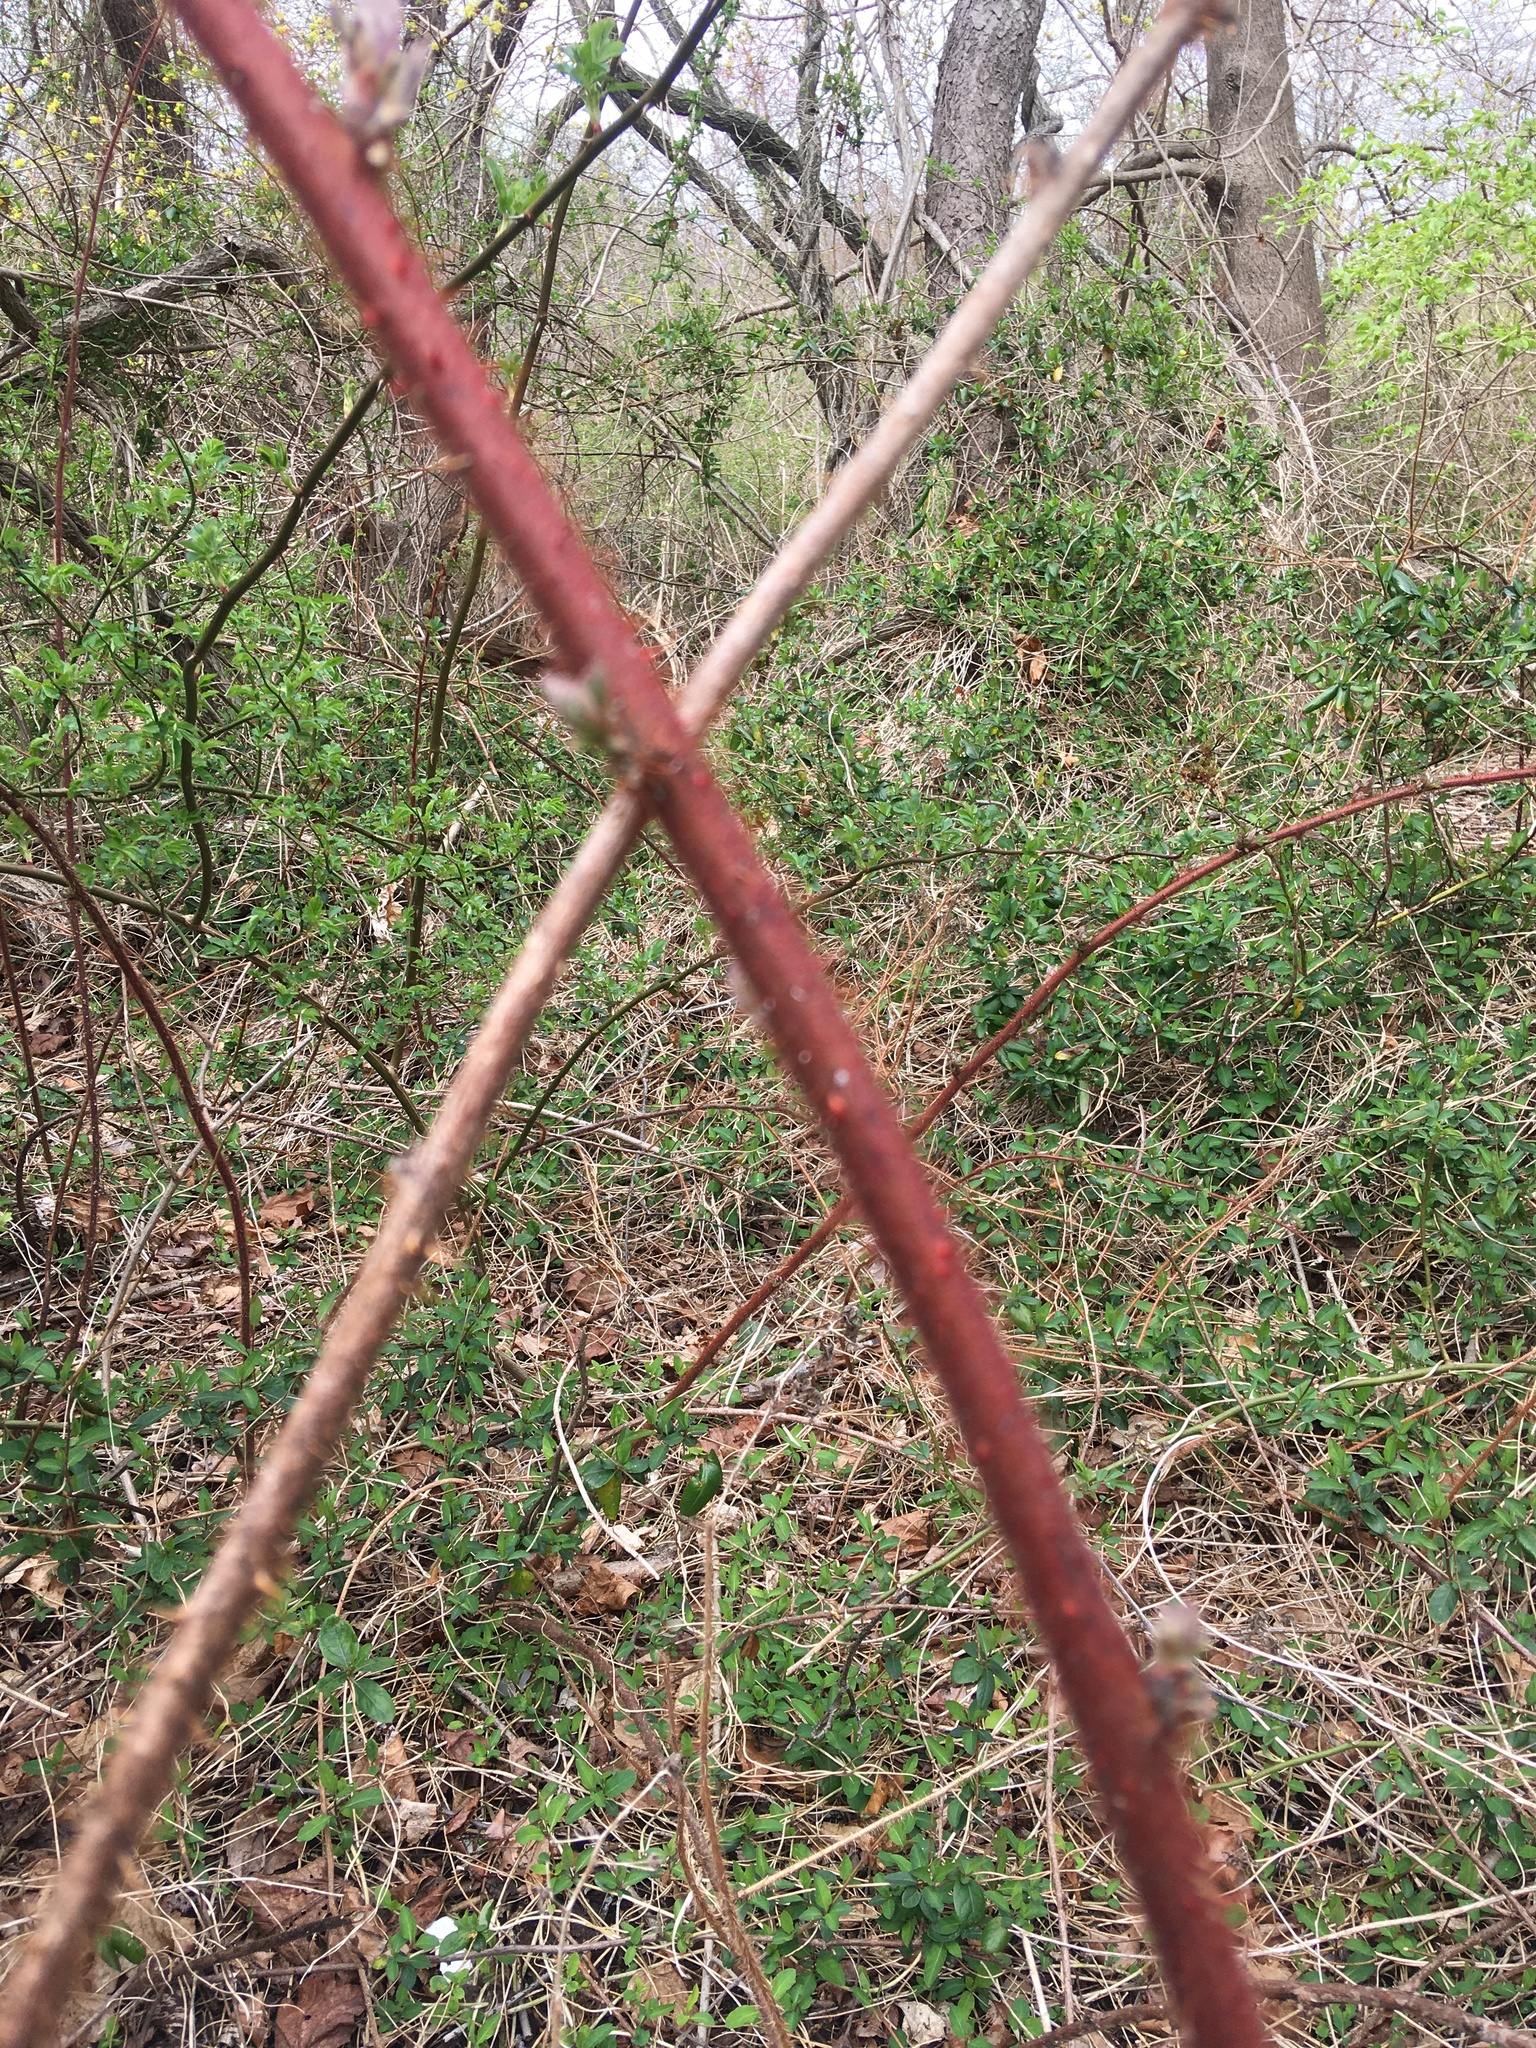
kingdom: Plantae
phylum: Tracheophyta
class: Magnoliopsida
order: Rosales
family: Rosaceae
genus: Rubus
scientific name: Rubus phoenicolasius
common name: Japanese wineberry
